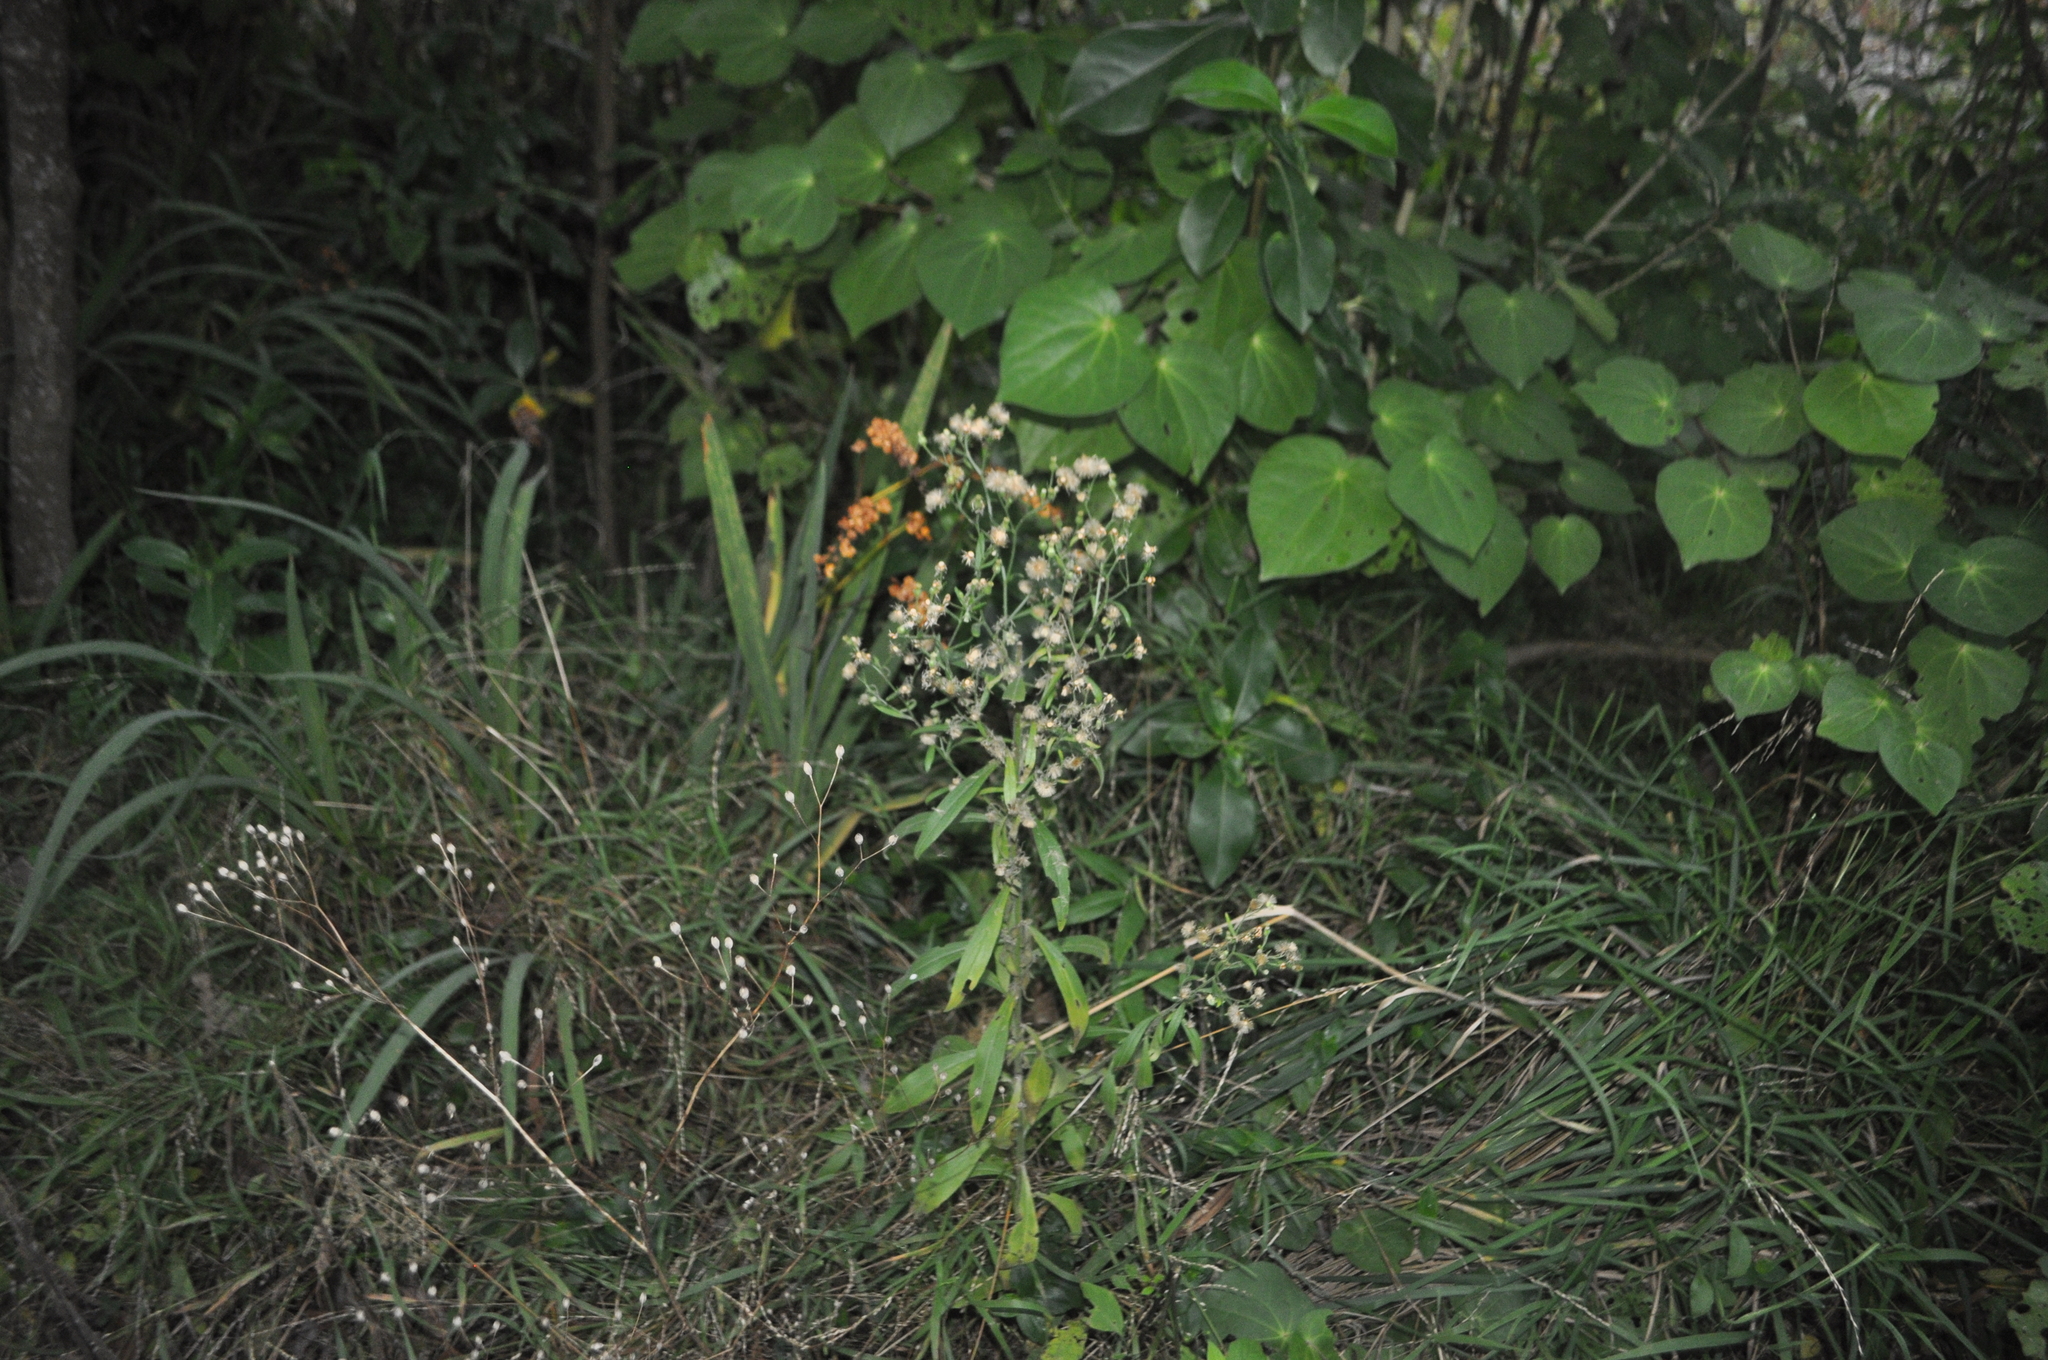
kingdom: Plantae
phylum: Tracheophyta
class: Magnoliopsida
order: Asterales
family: Asteraceae
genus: Erigeron
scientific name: Erigeron sumatrensis
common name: Daisy
